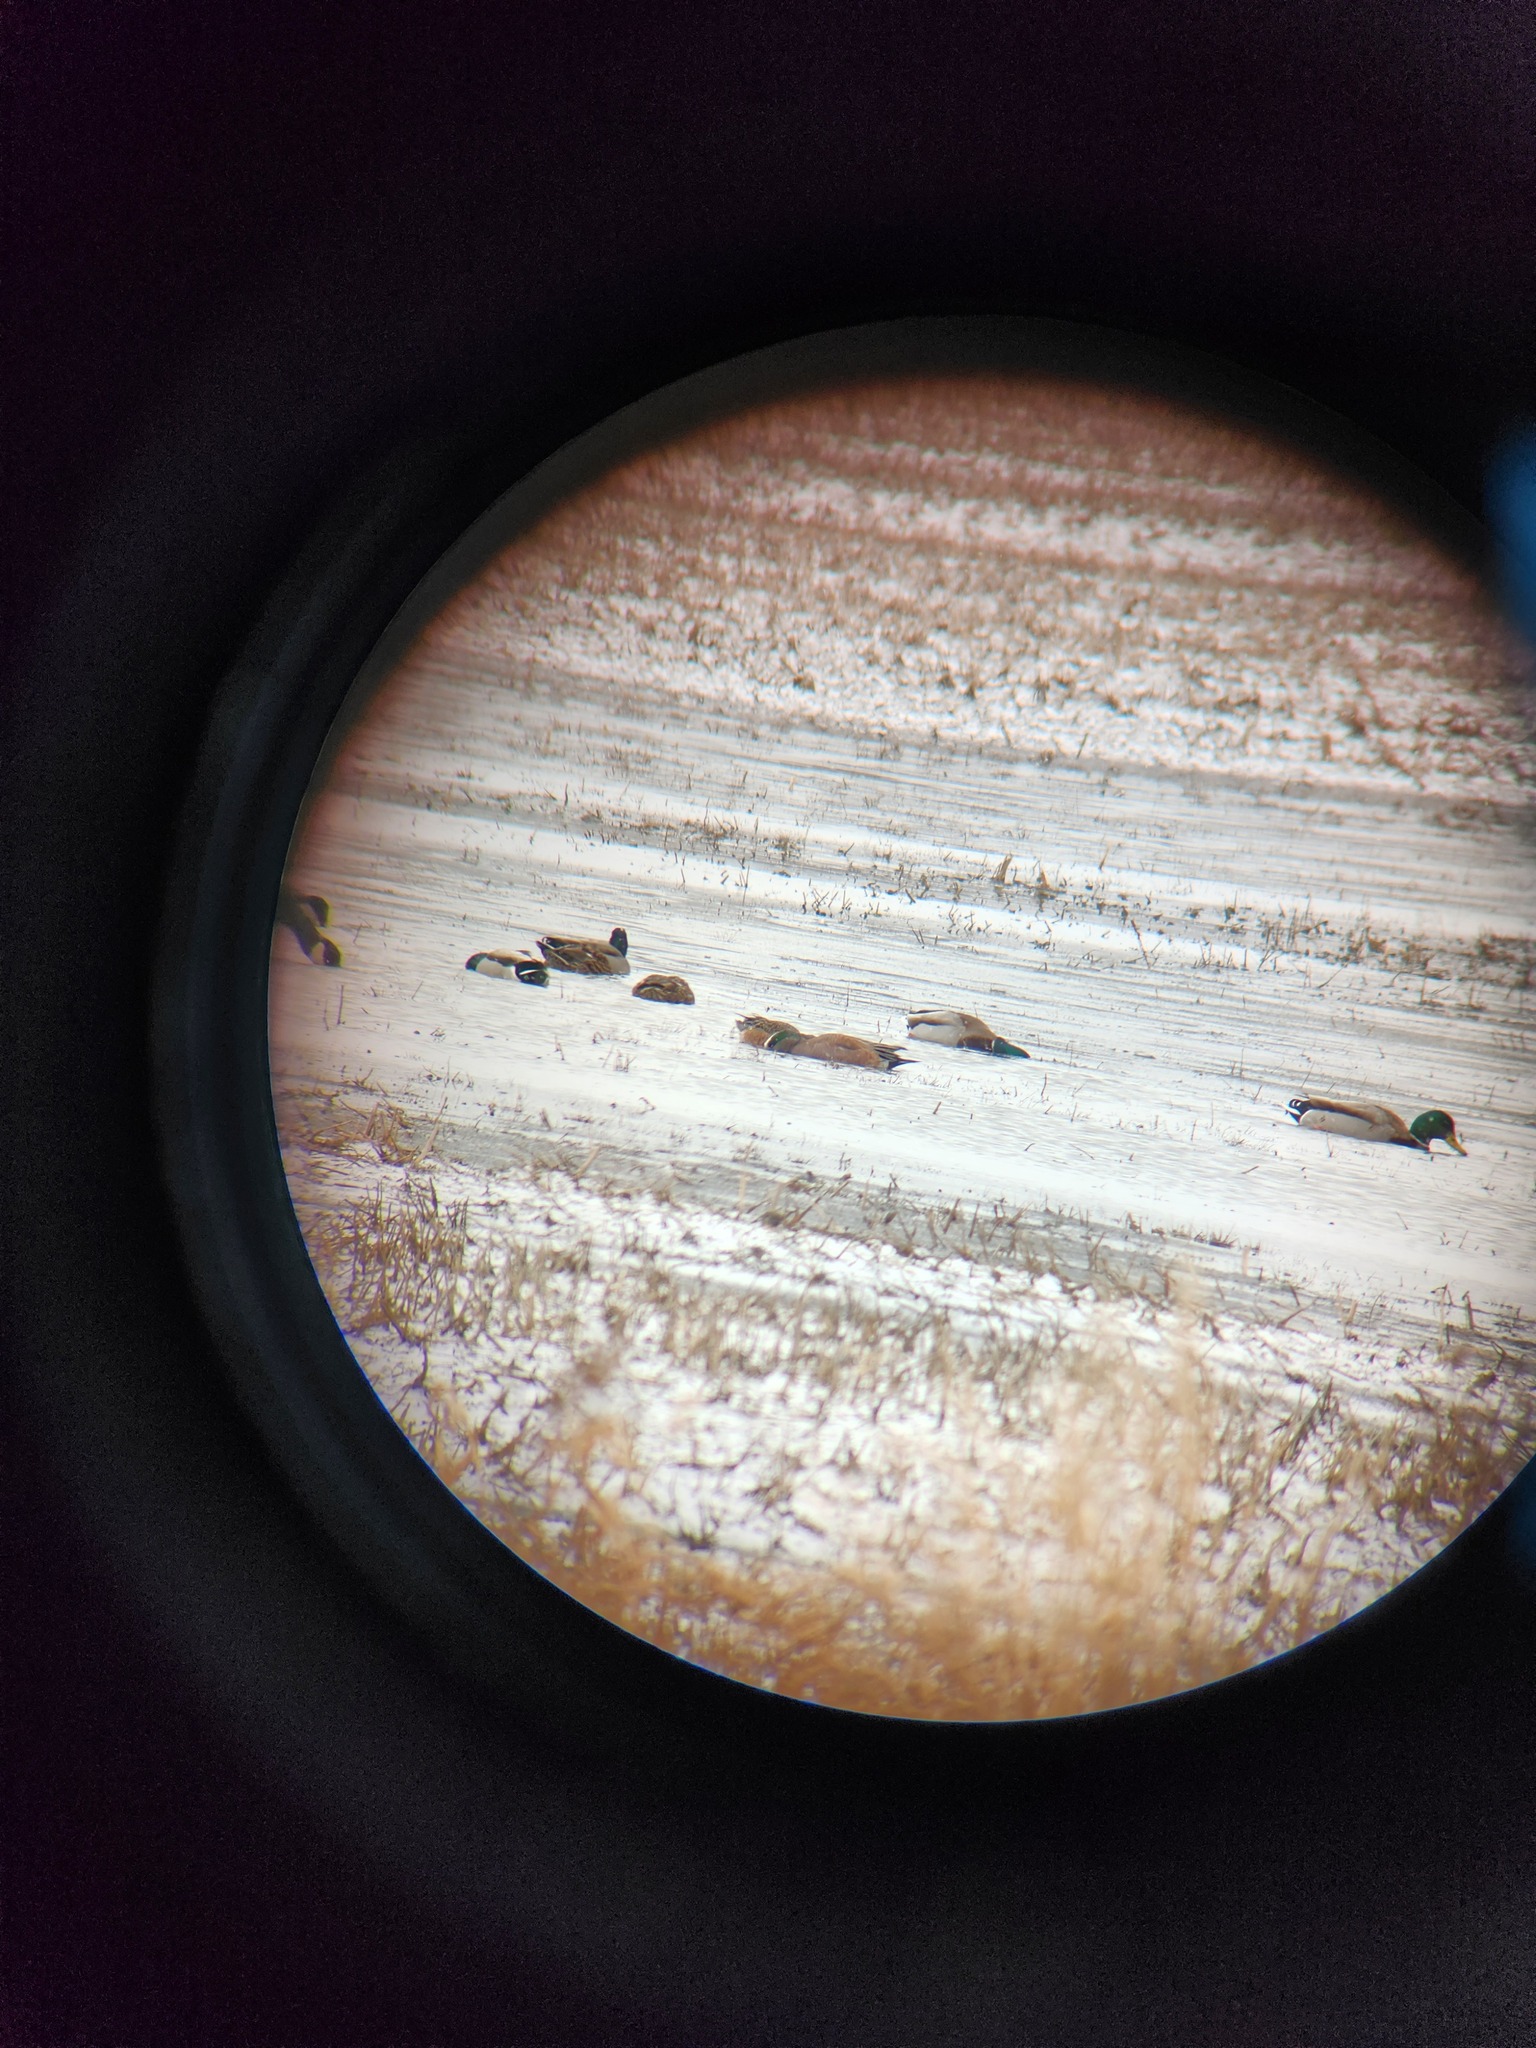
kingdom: Animalia
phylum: Chordata
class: Aves
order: Anseriformes
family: Anatidae
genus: Mareca
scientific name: Mareca americana
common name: American wigeon
